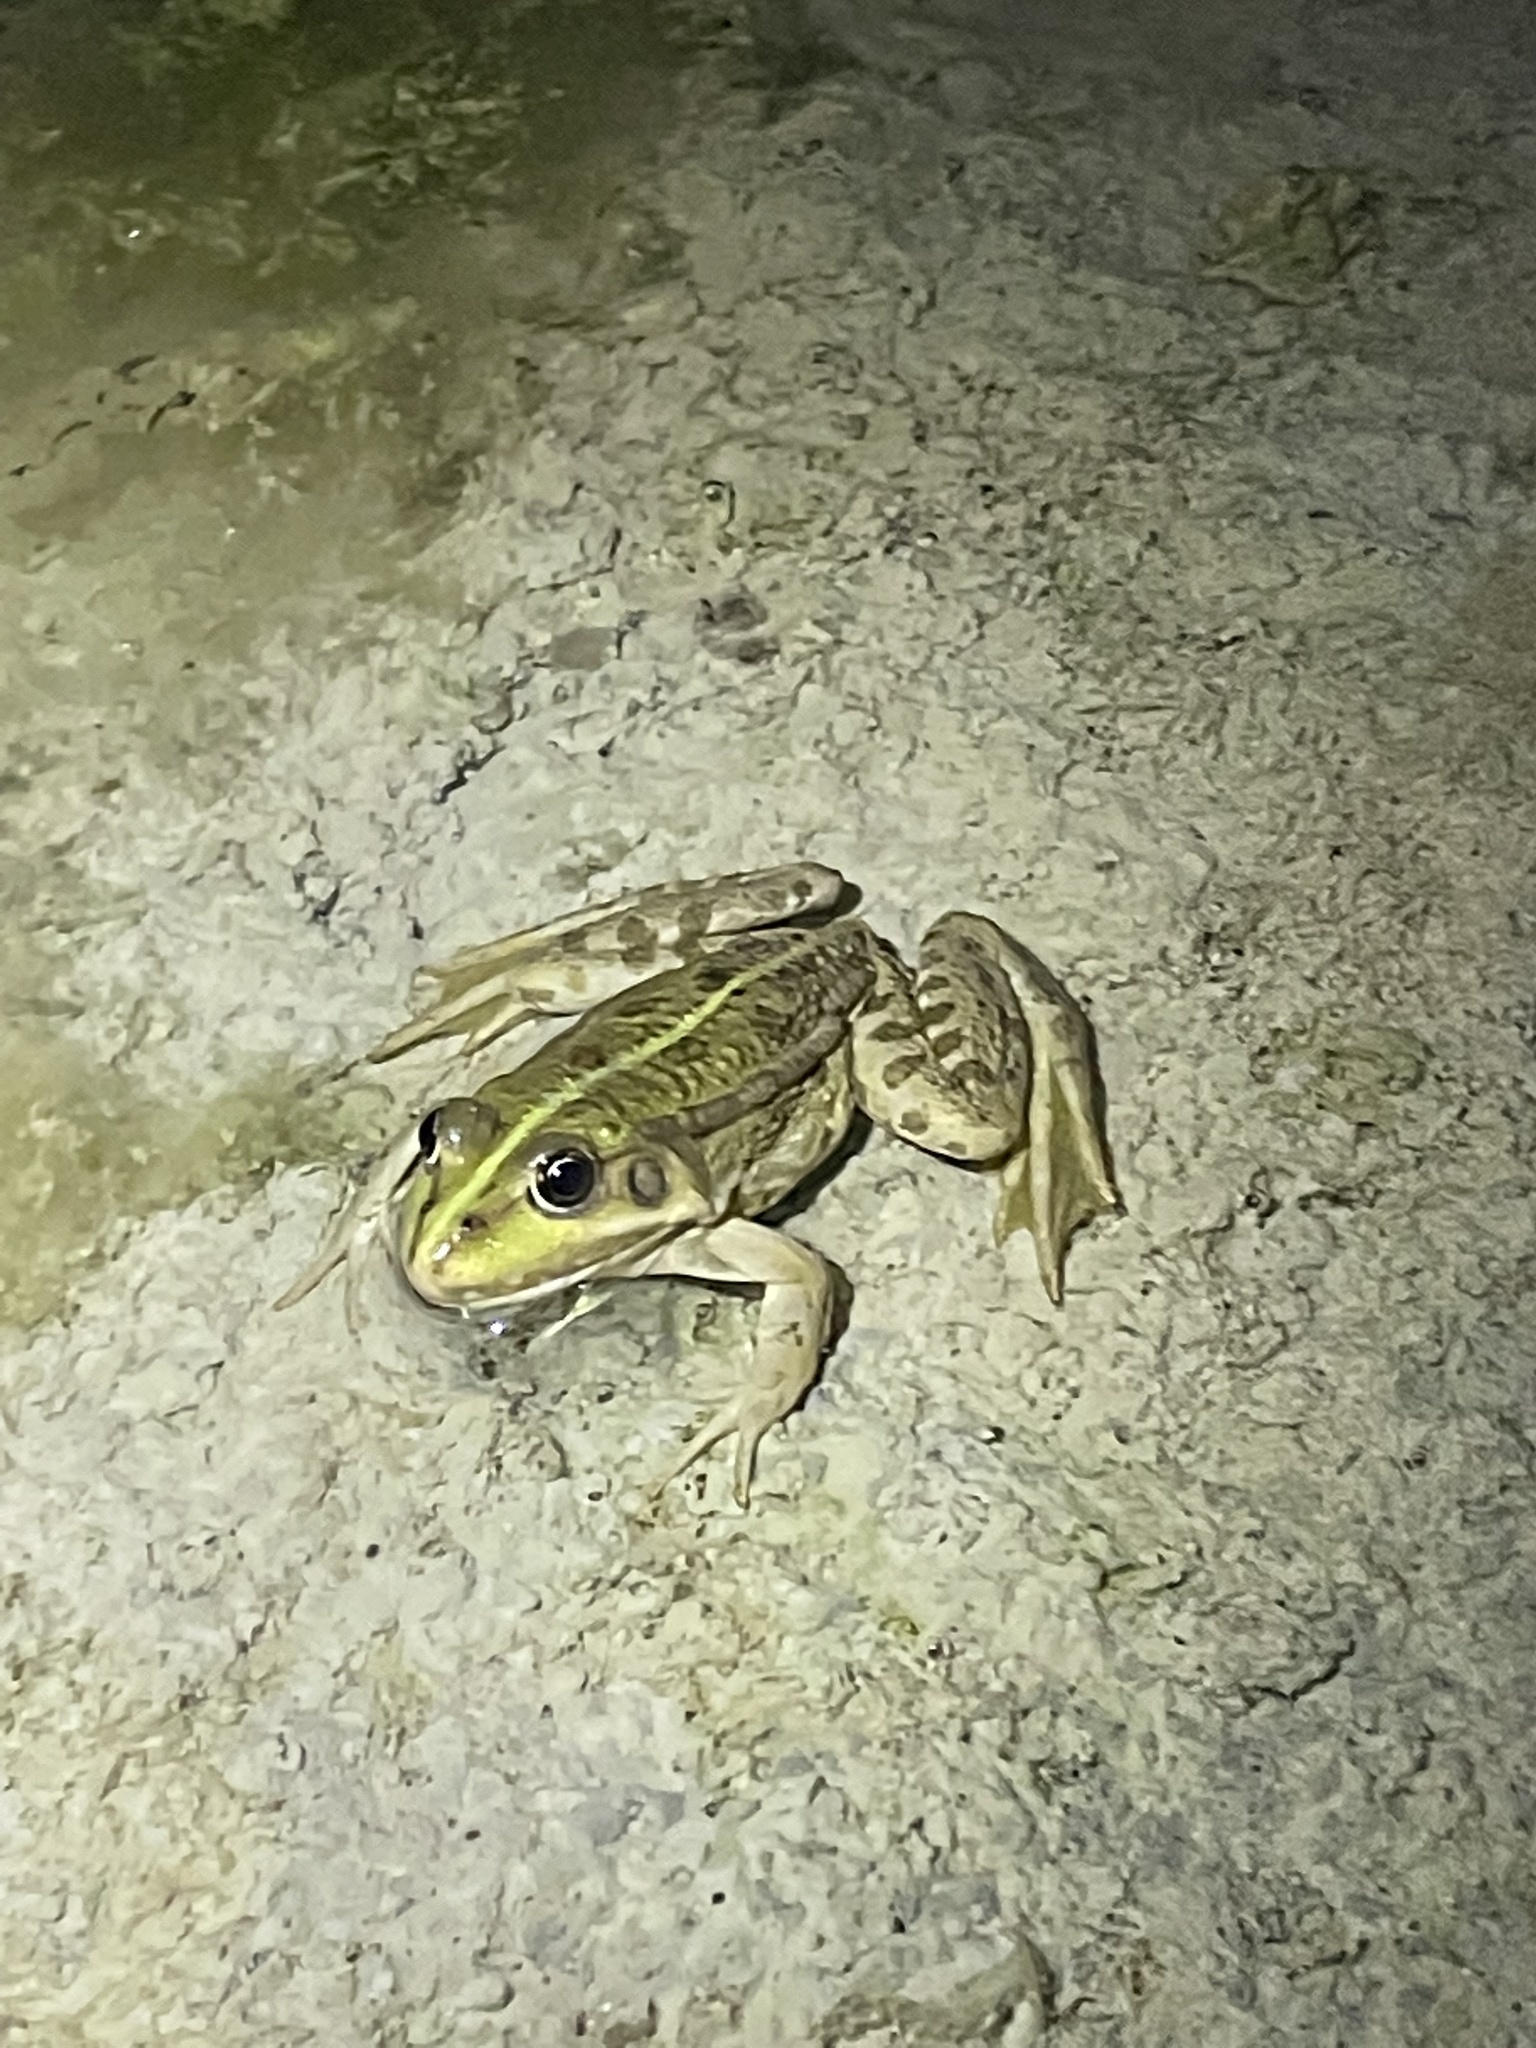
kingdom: Animalia
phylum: Chordata
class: Amphibia
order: Anura
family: Ranidae
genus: Pelophylax
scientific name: Pelophylax
